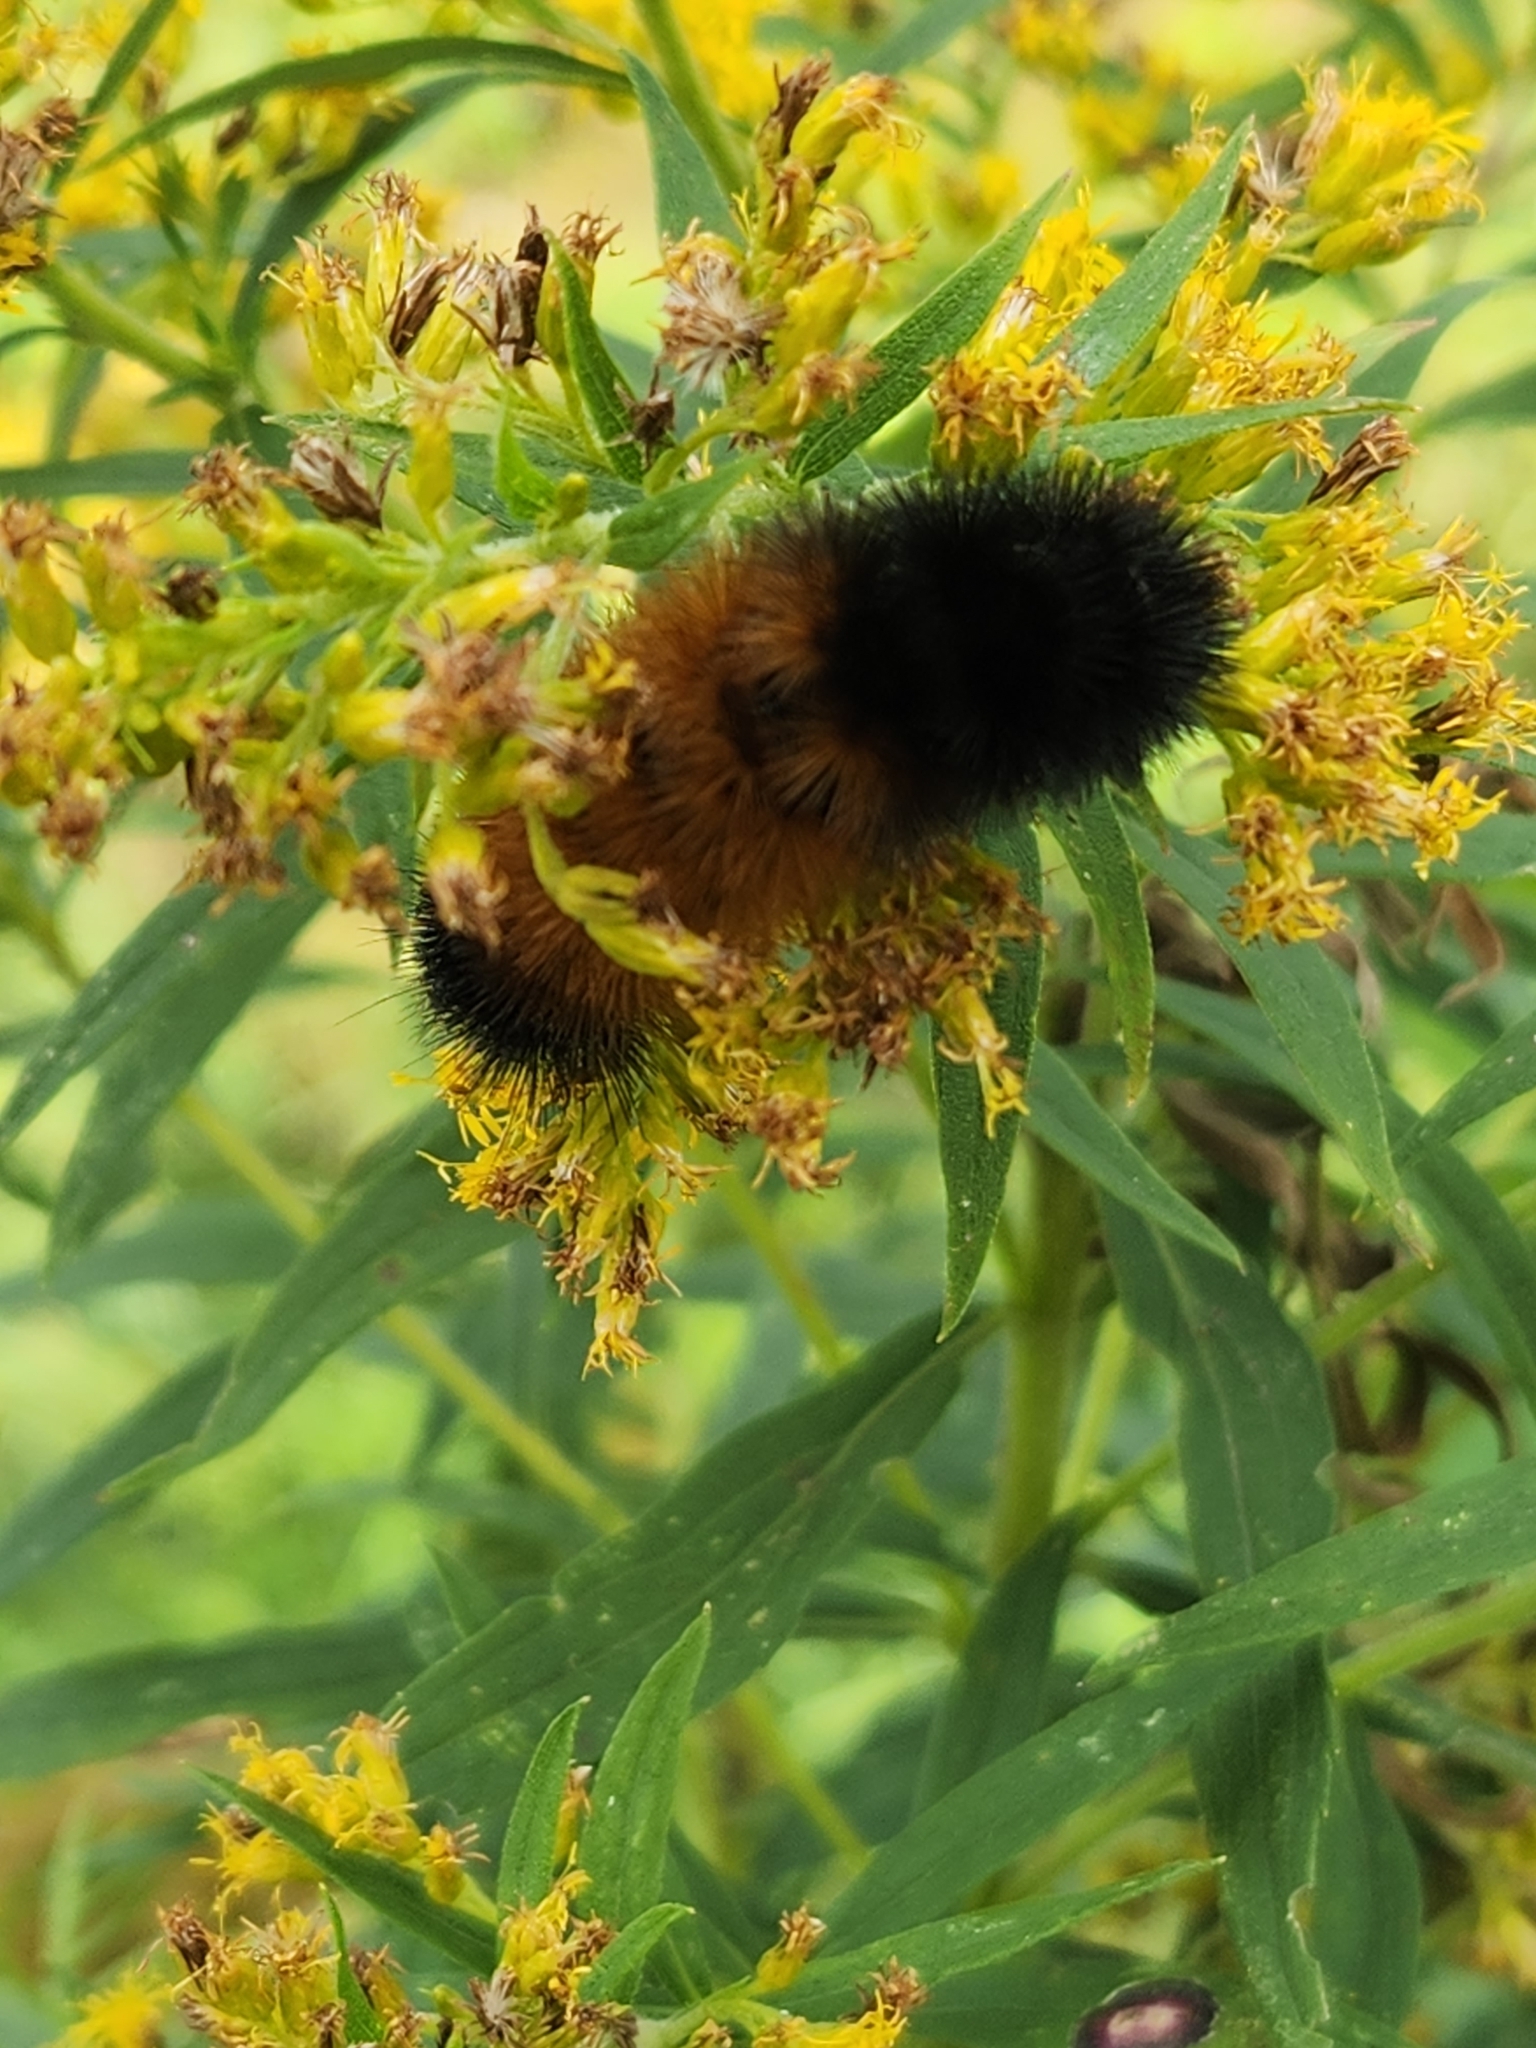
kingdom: Animalia
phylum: Arthropoda
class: Insecta
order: Lepidoptera
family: Erebidae
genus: Pyrrharctia
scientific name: Pyrrharctia isabella
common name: Isabella tiger moth
